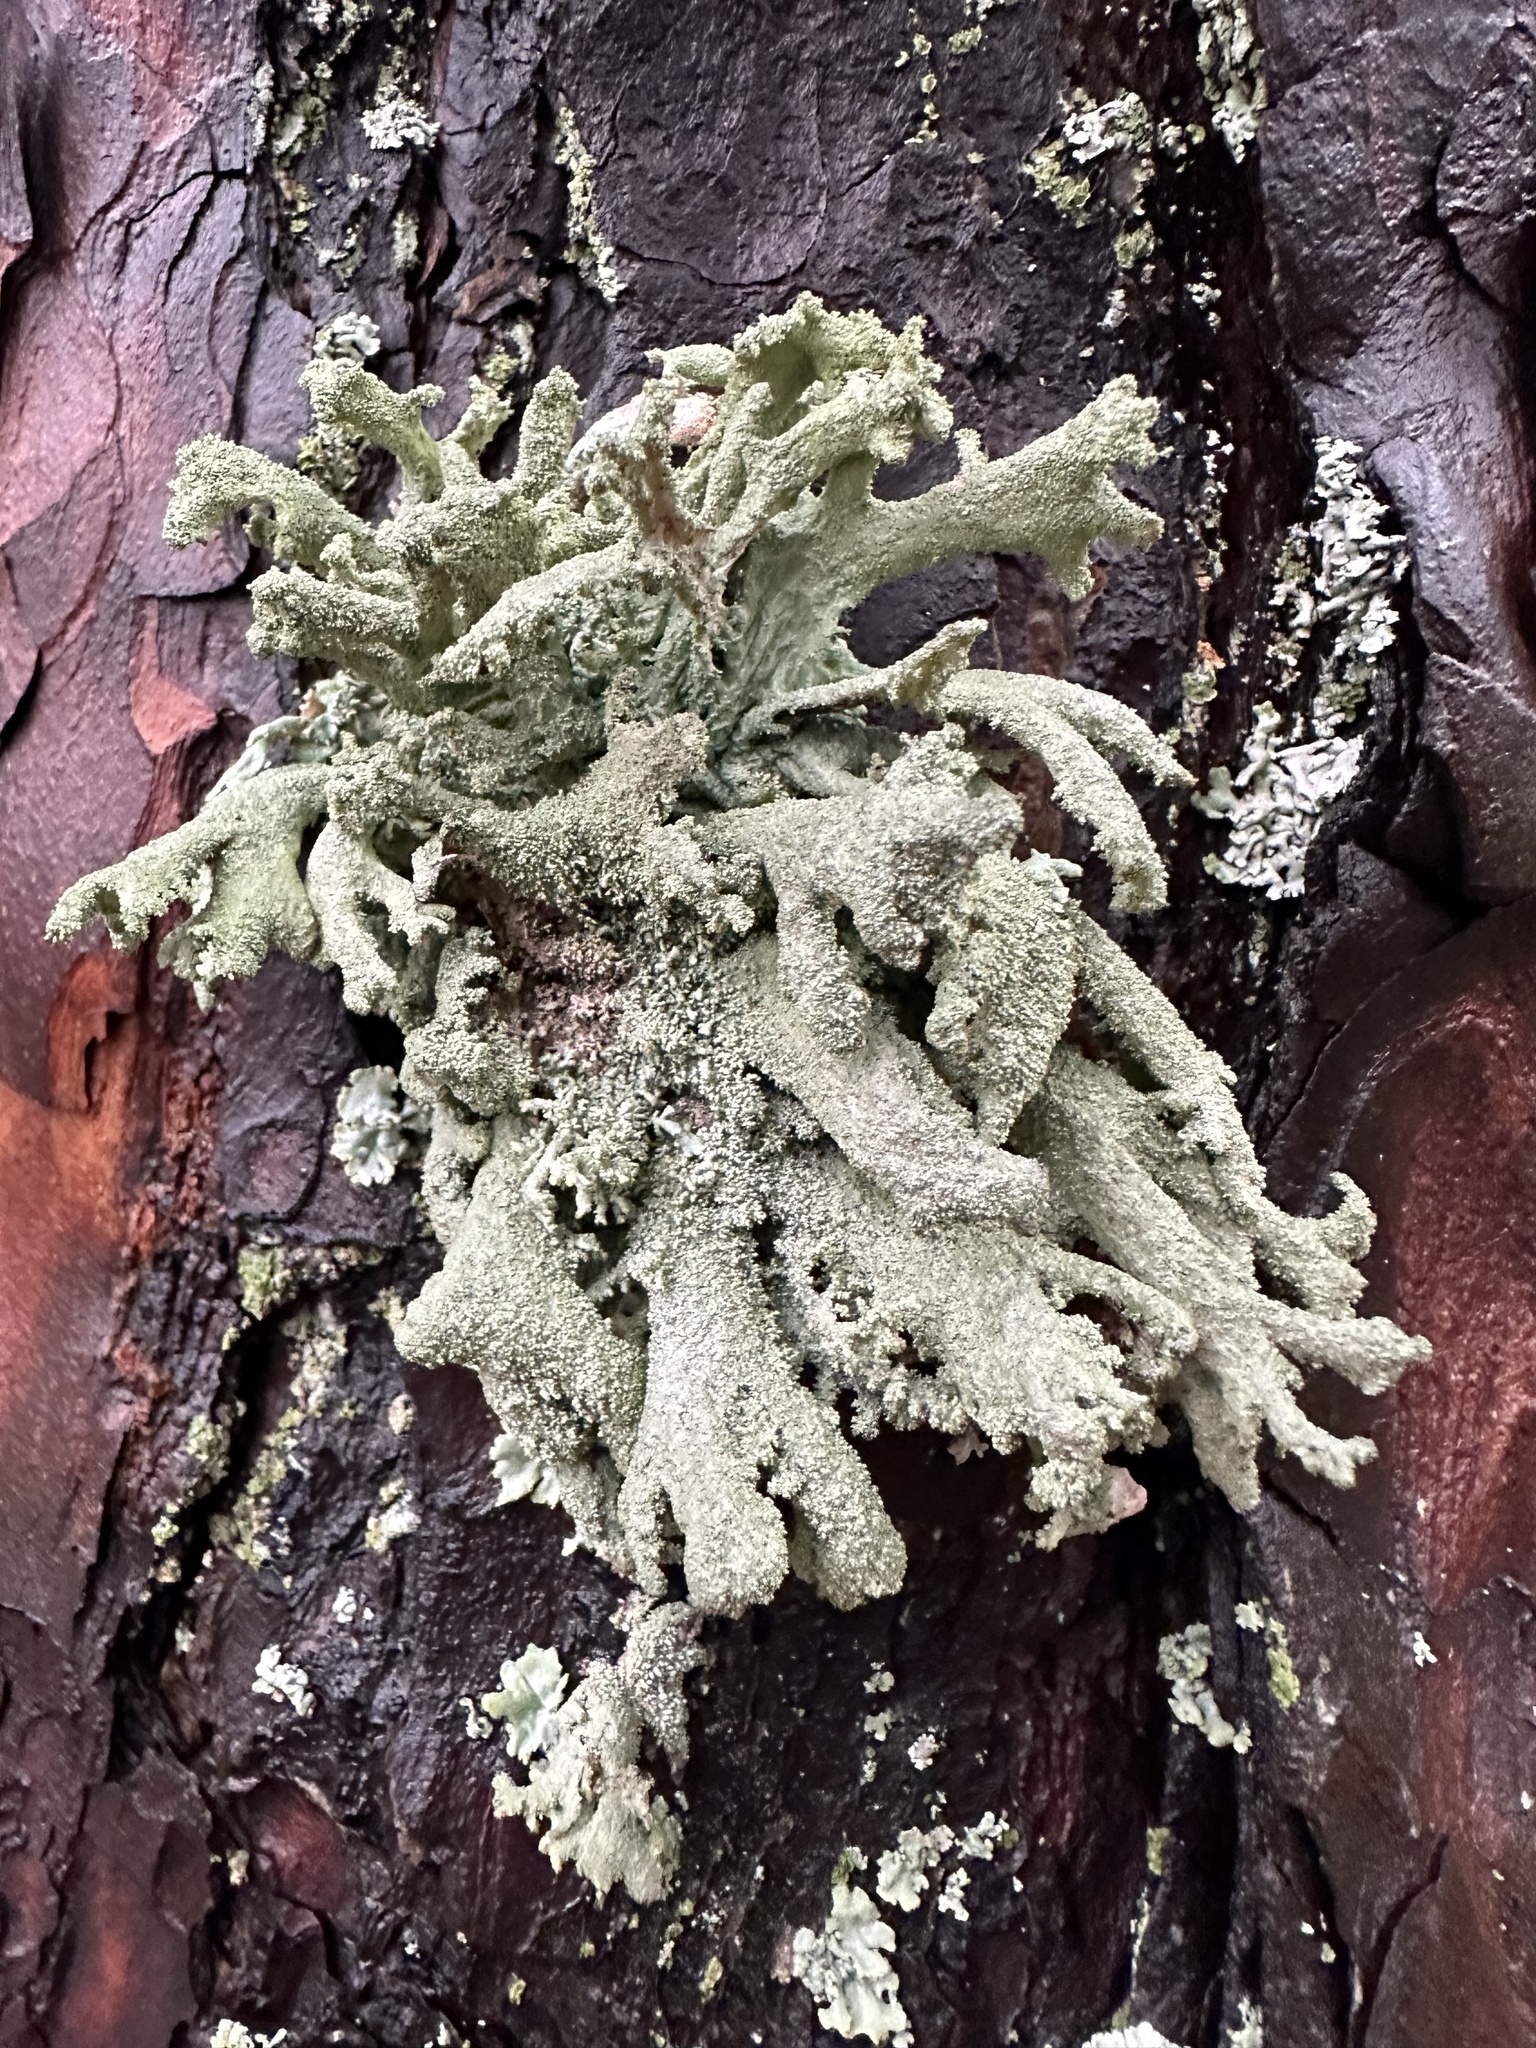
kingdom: Fungi
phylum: Ascomycota
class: Lecanoromycetes
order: Lecanorales
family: Parmeliaceae
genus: Pseudevernia
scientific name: Pseudevernia furfuracea
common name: Tree moss
